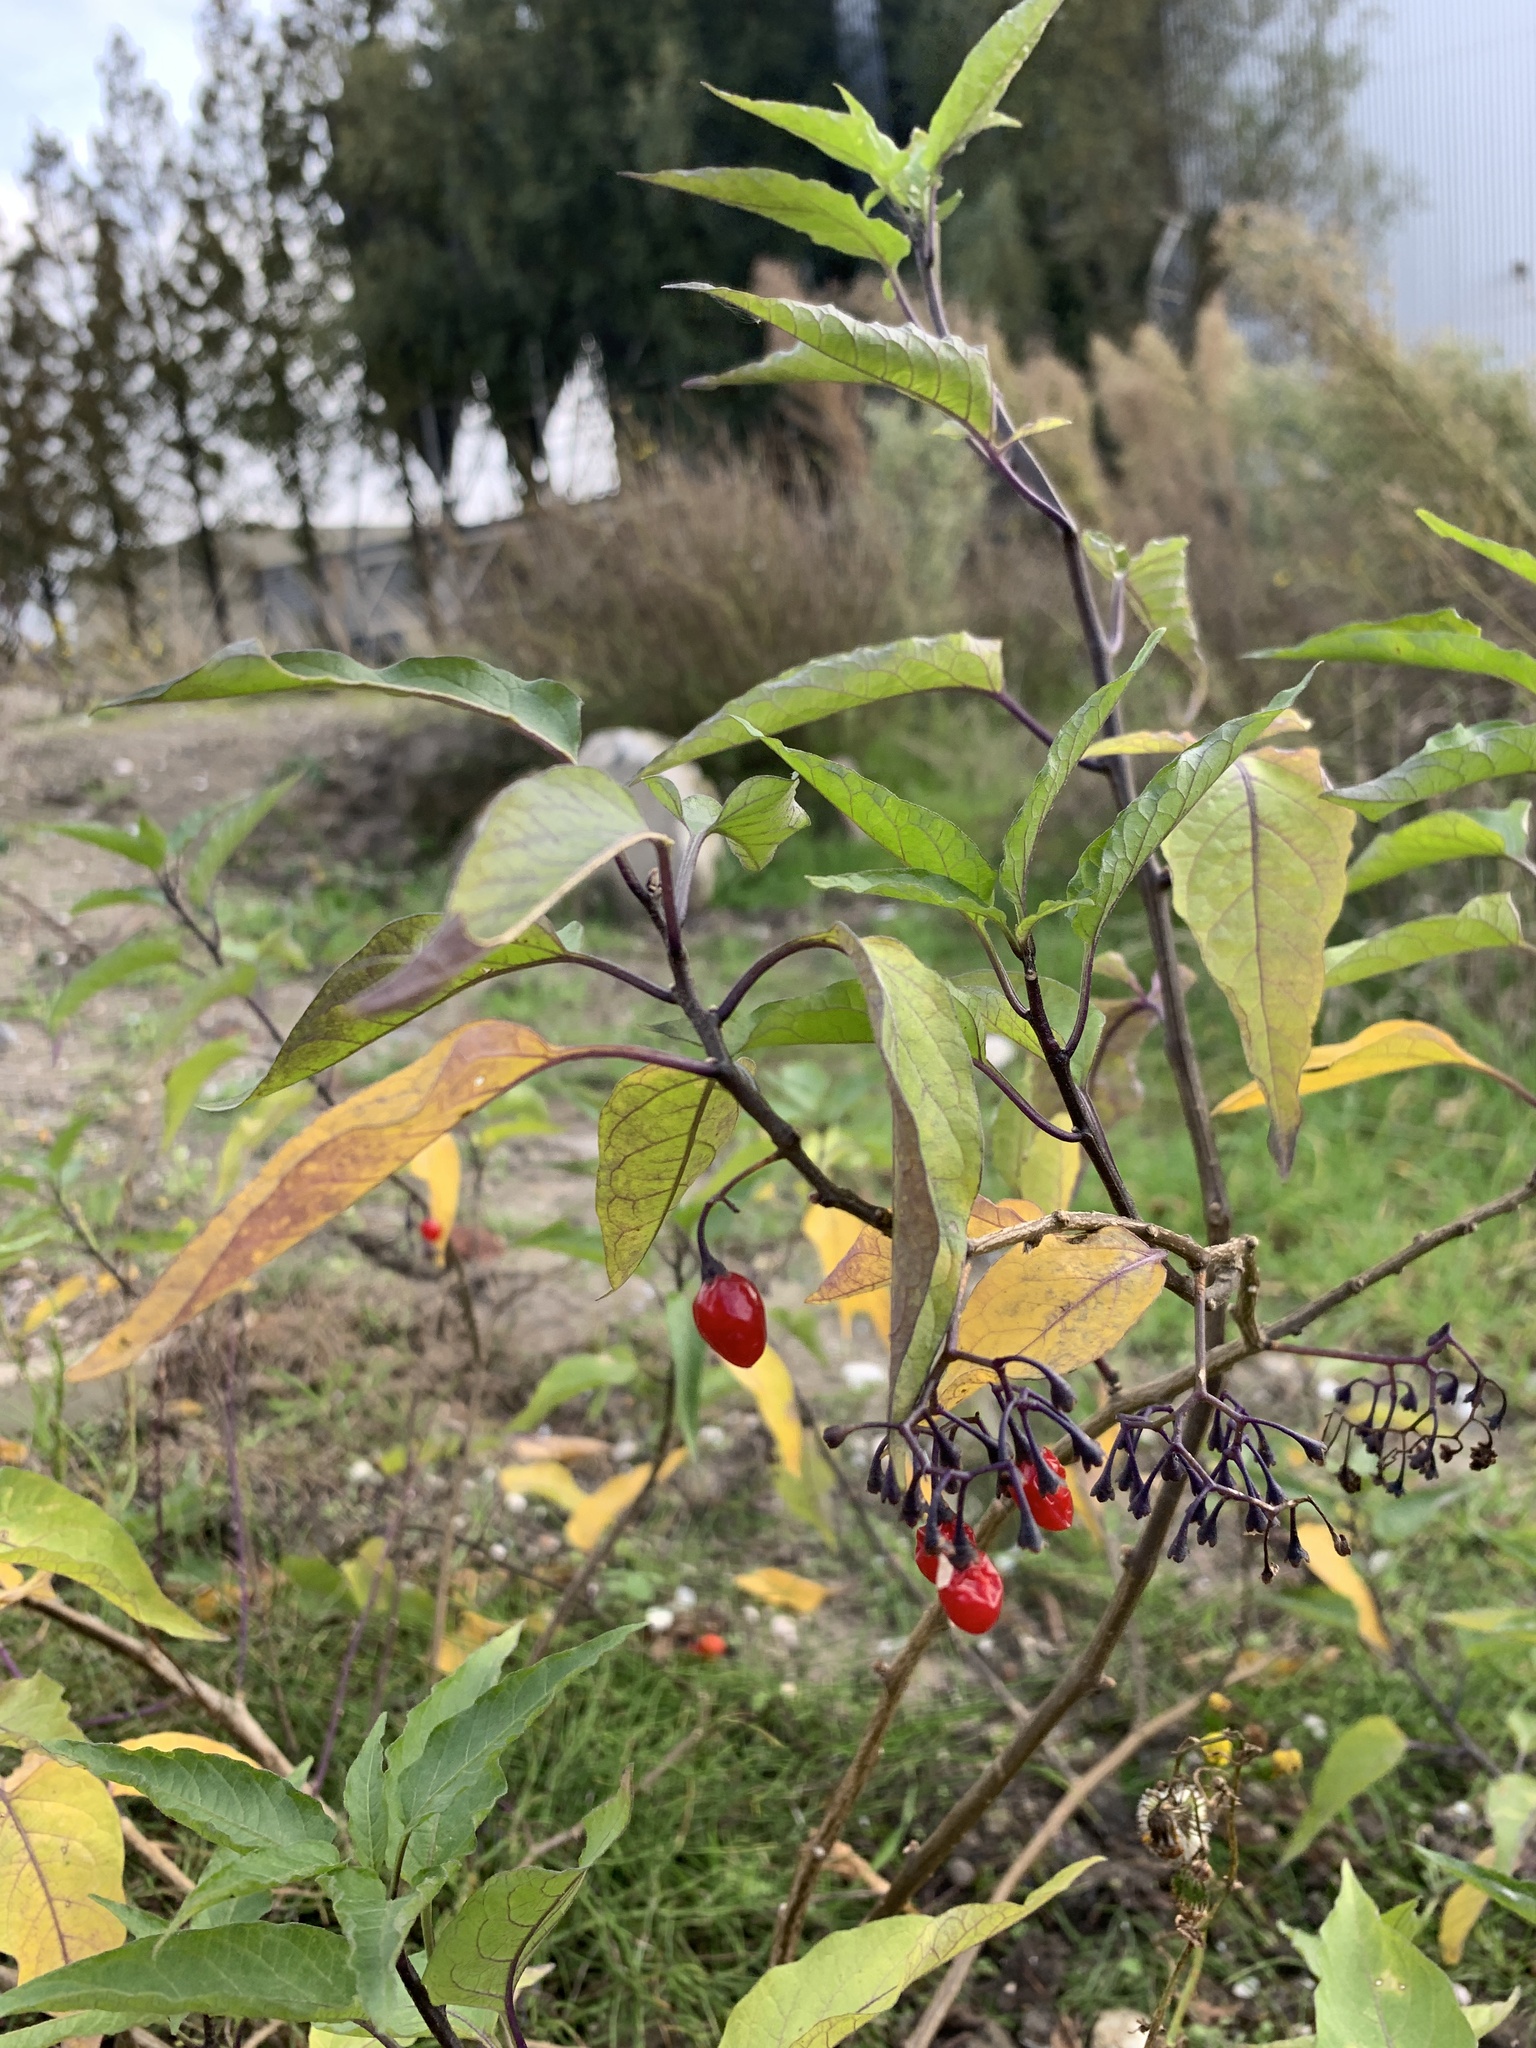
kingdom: Plantae
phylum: Tracheophyta
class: Magnoliopsida
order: Solanales
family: Solanaceae
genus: Solanum
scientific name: Solanum dulcamara
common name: Climbing nightshade
